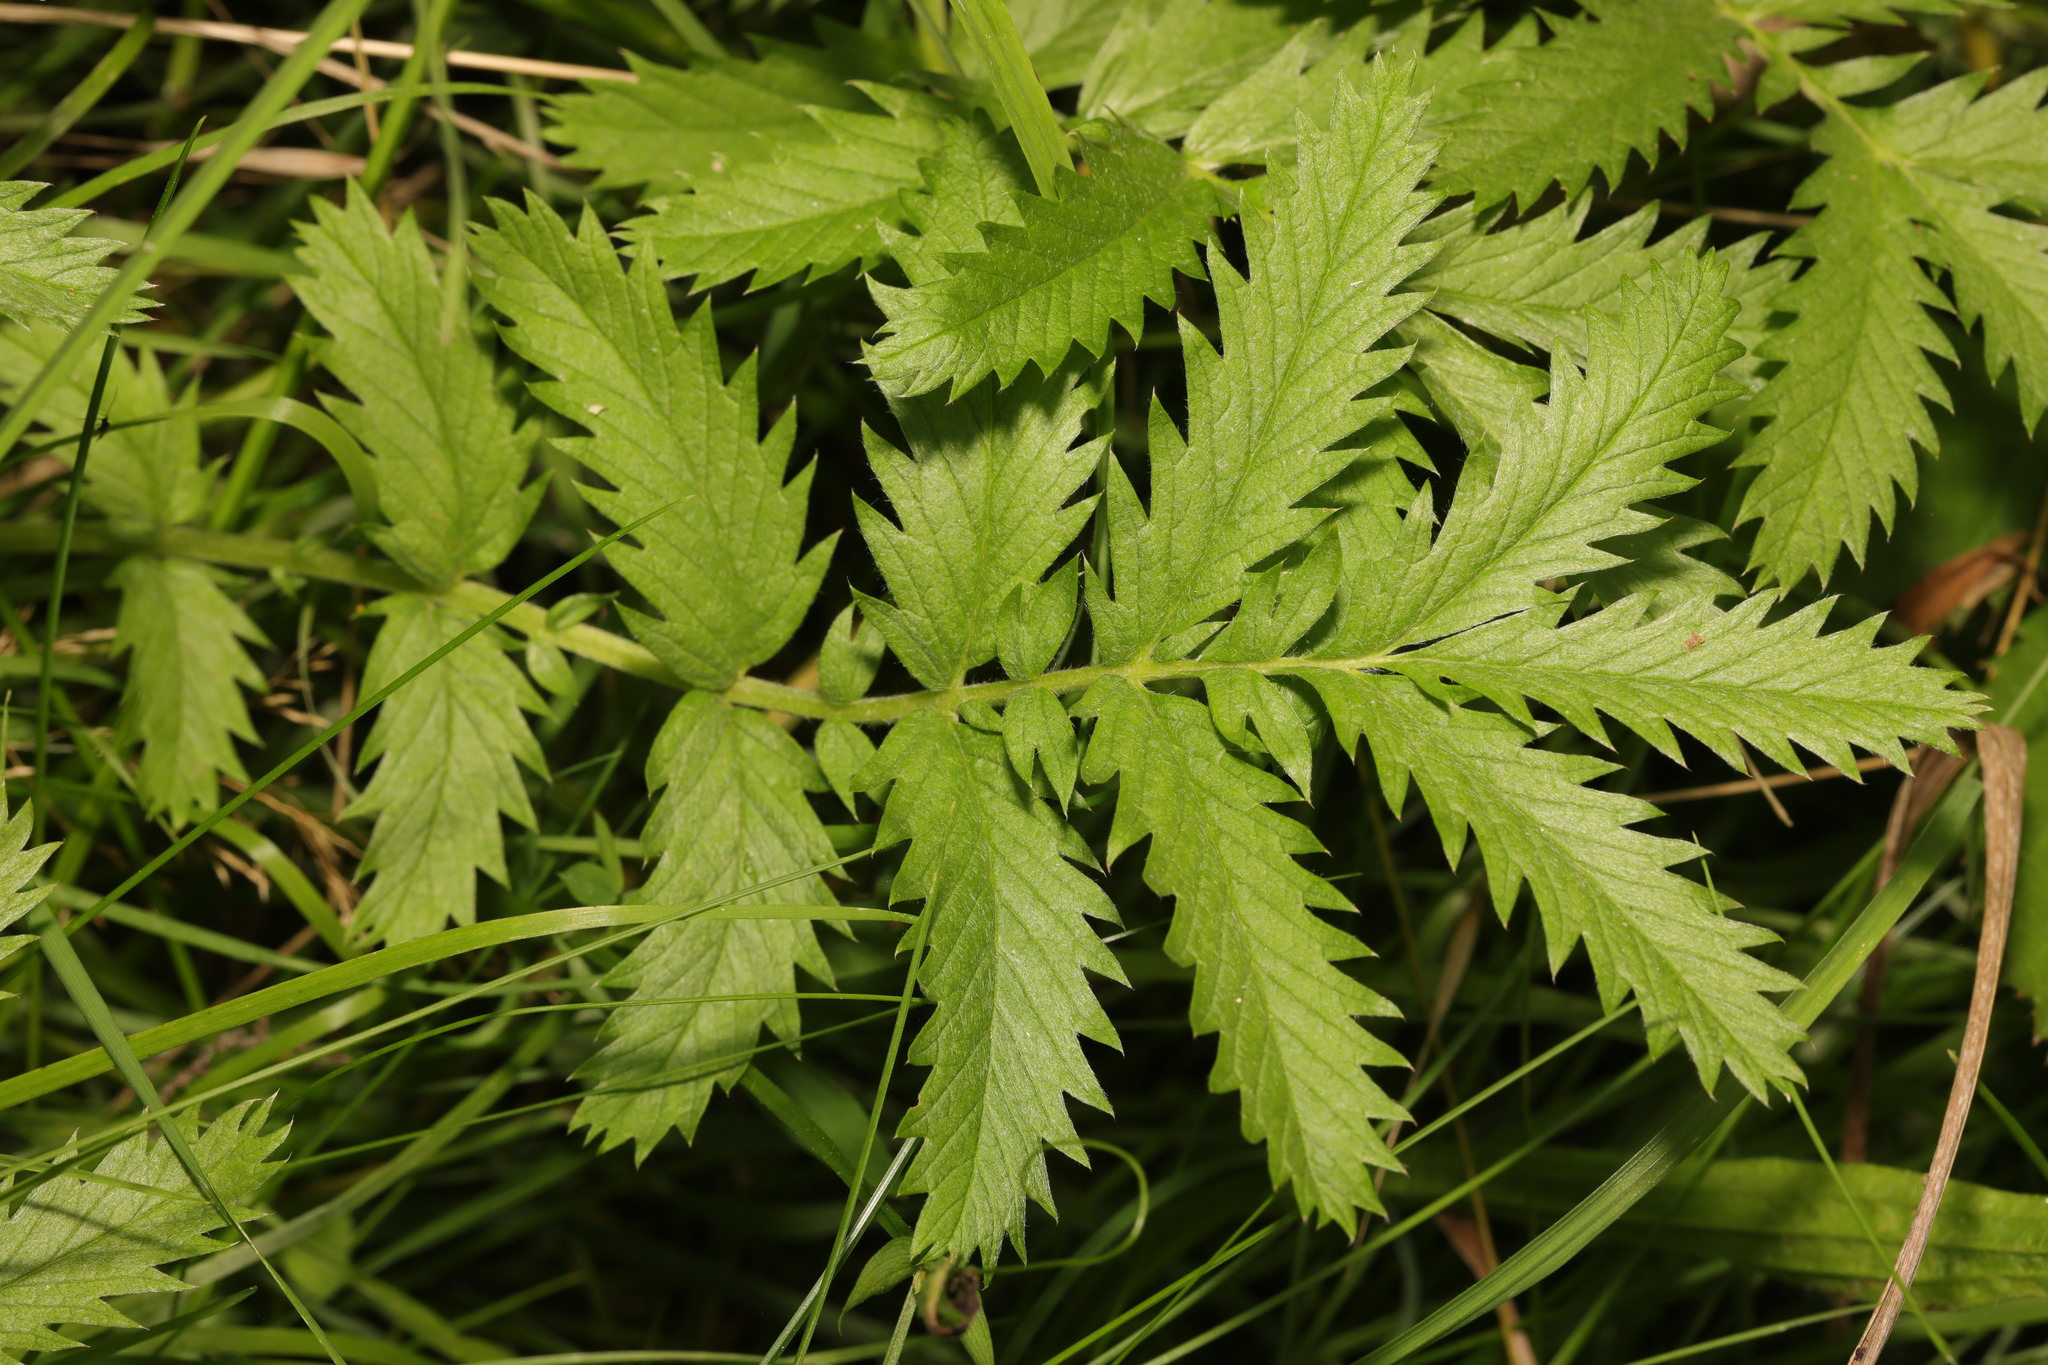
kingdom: Plantae
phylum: Tracheophyta
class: Magnoliopsida
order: Rosales
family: Rosaceae
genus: Argentina
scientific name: Argentina anserina
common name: Common silverweed
